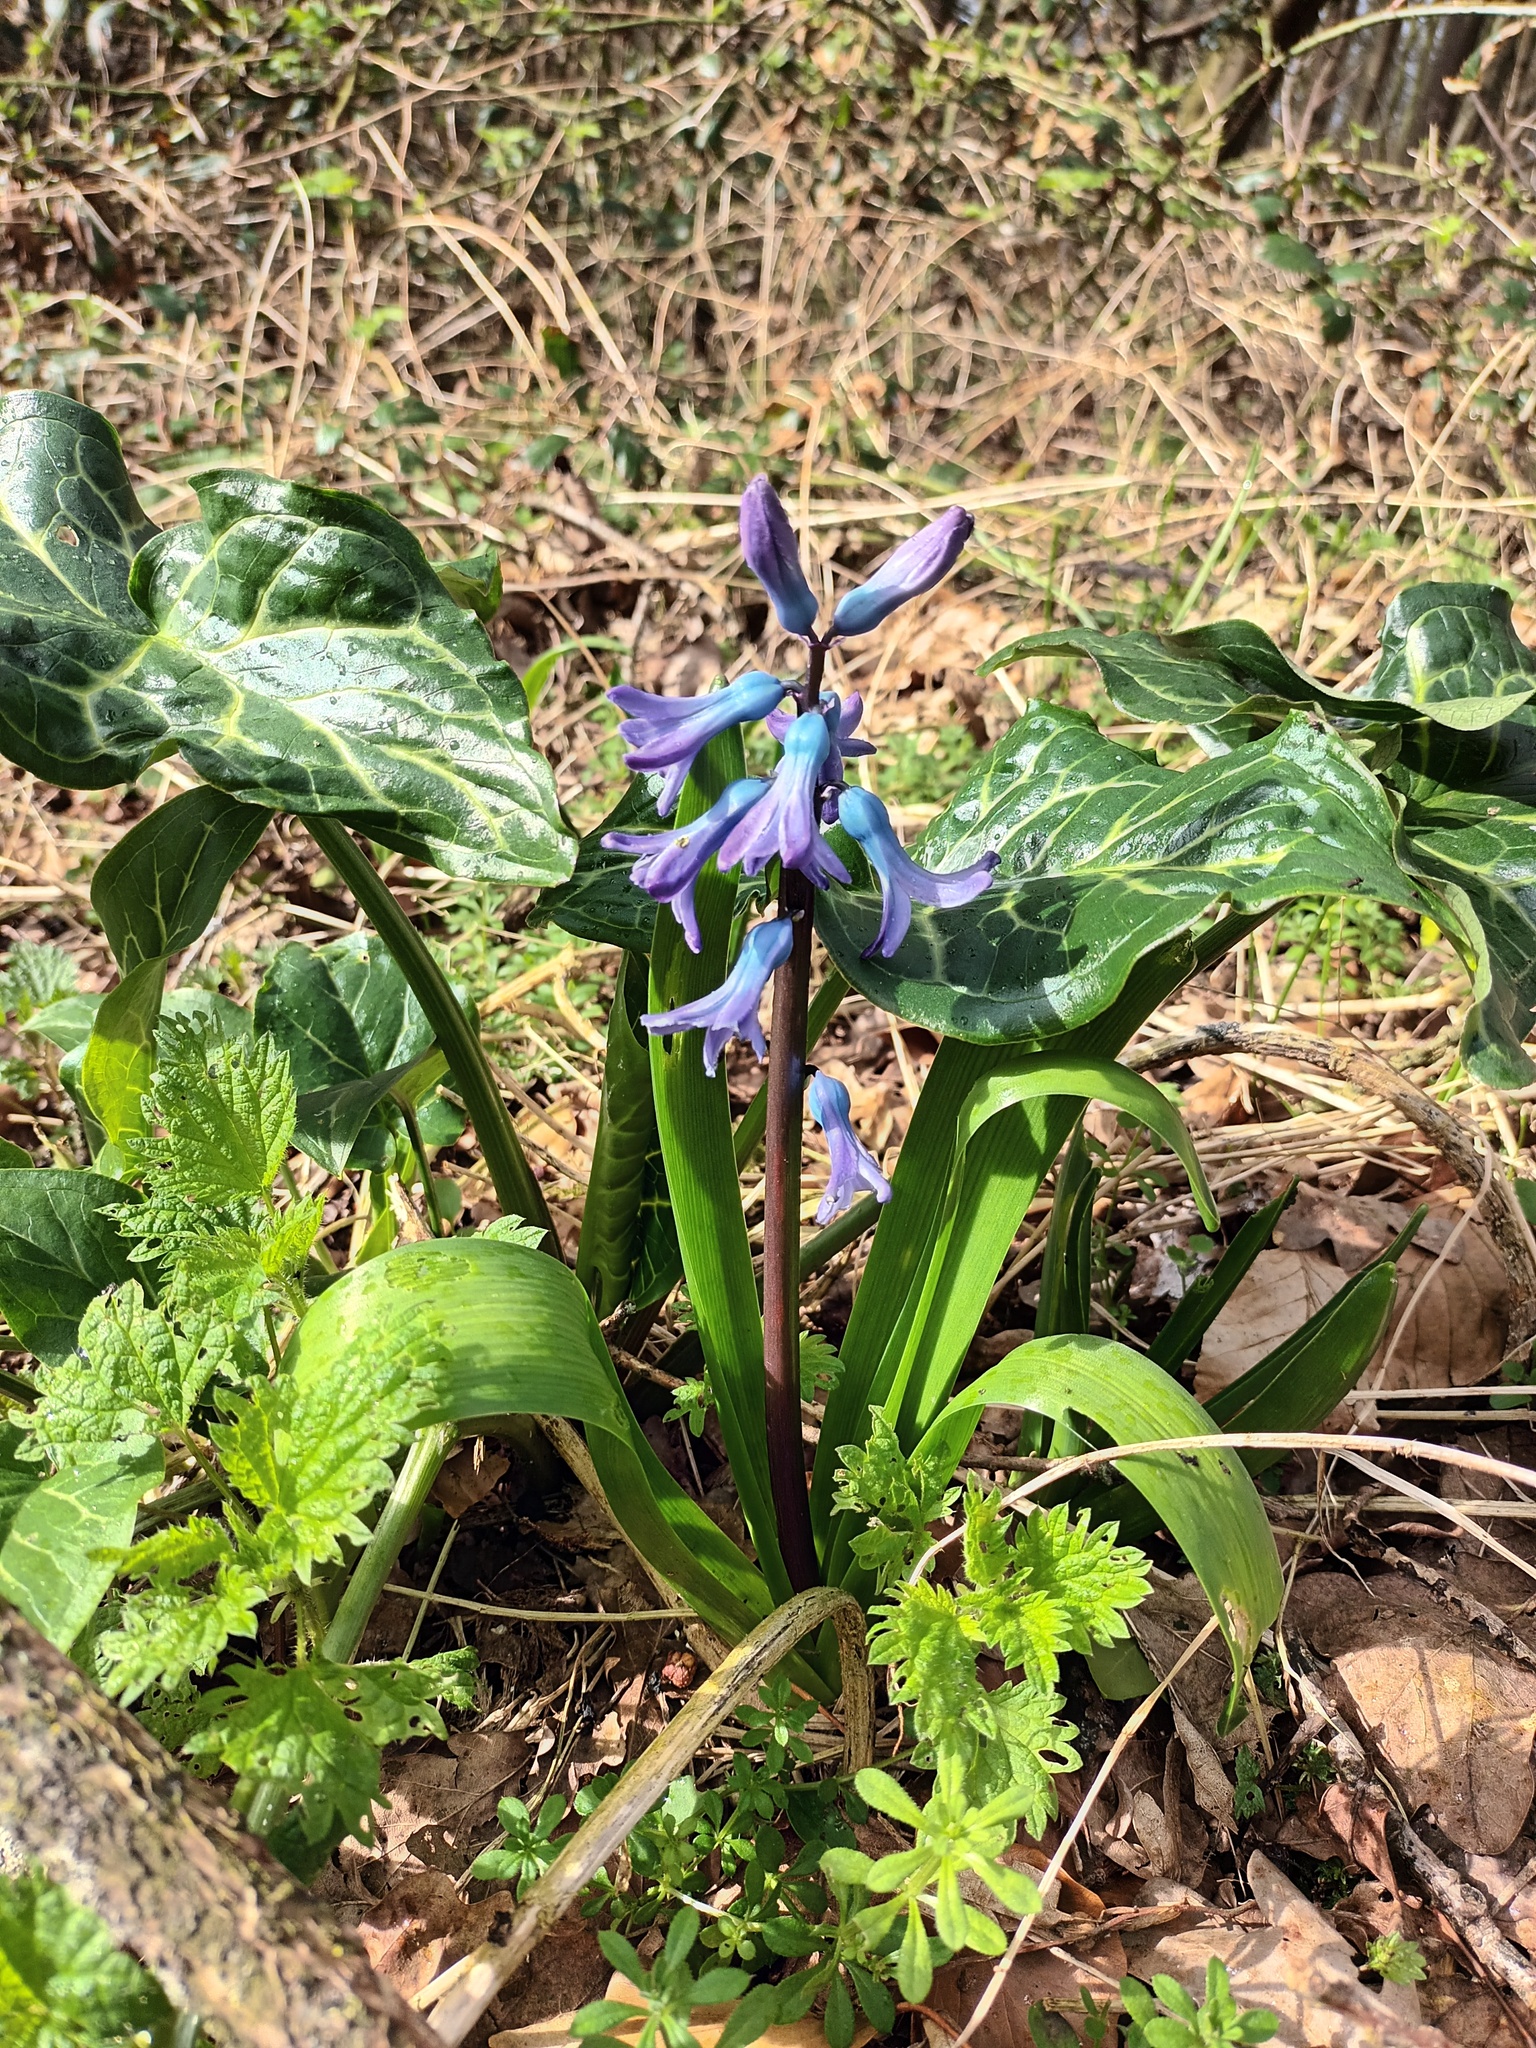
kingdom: Plantae
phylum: Tracheophyta
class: Liliopsida
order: Asparagales
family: Asparagaceae
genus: Hyacinthus
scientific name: Hyacinthus orientalis
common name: Hyacinth
